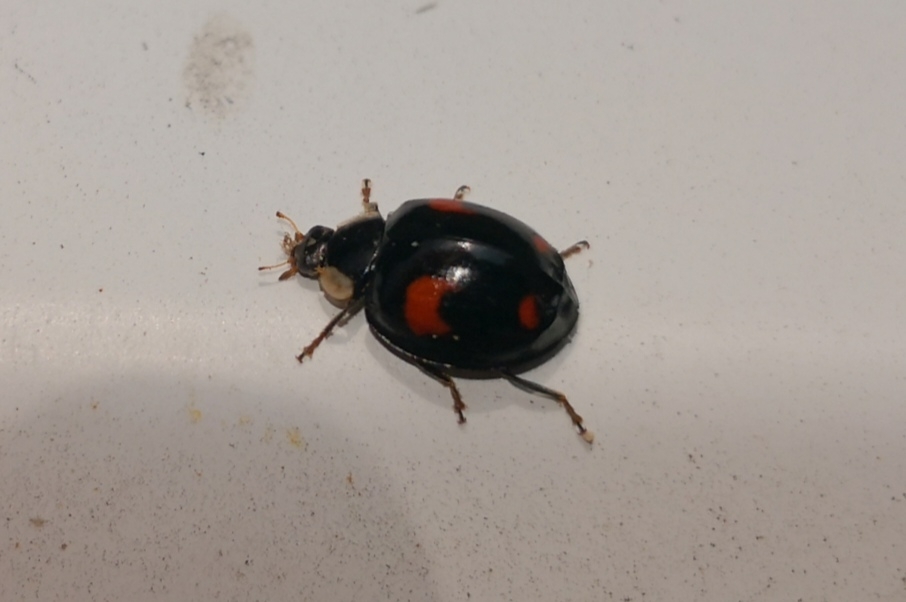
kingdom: Animalia
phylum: Arthropoda
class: Insecta
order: Coleoptera
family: Coccinellidae
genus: Harmonia
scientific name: Harmonia axyridis
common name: Harlequin ladybird
